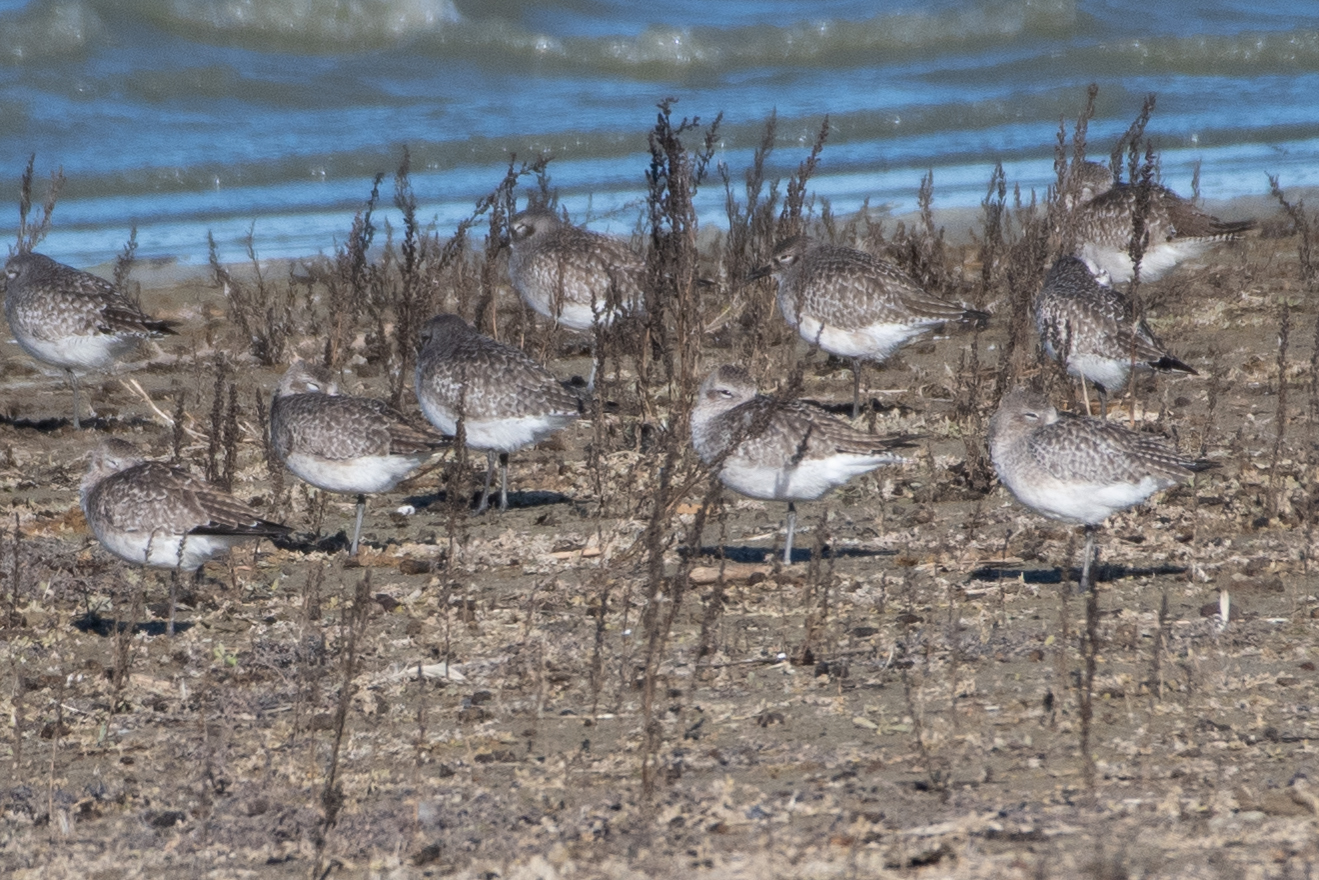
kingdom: Animalia
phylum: Chordata
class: Aves
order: Charadriiformes
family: Charadriidae
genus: Pluvialis
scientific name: Pluvialis squatarola
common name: Grey plover
